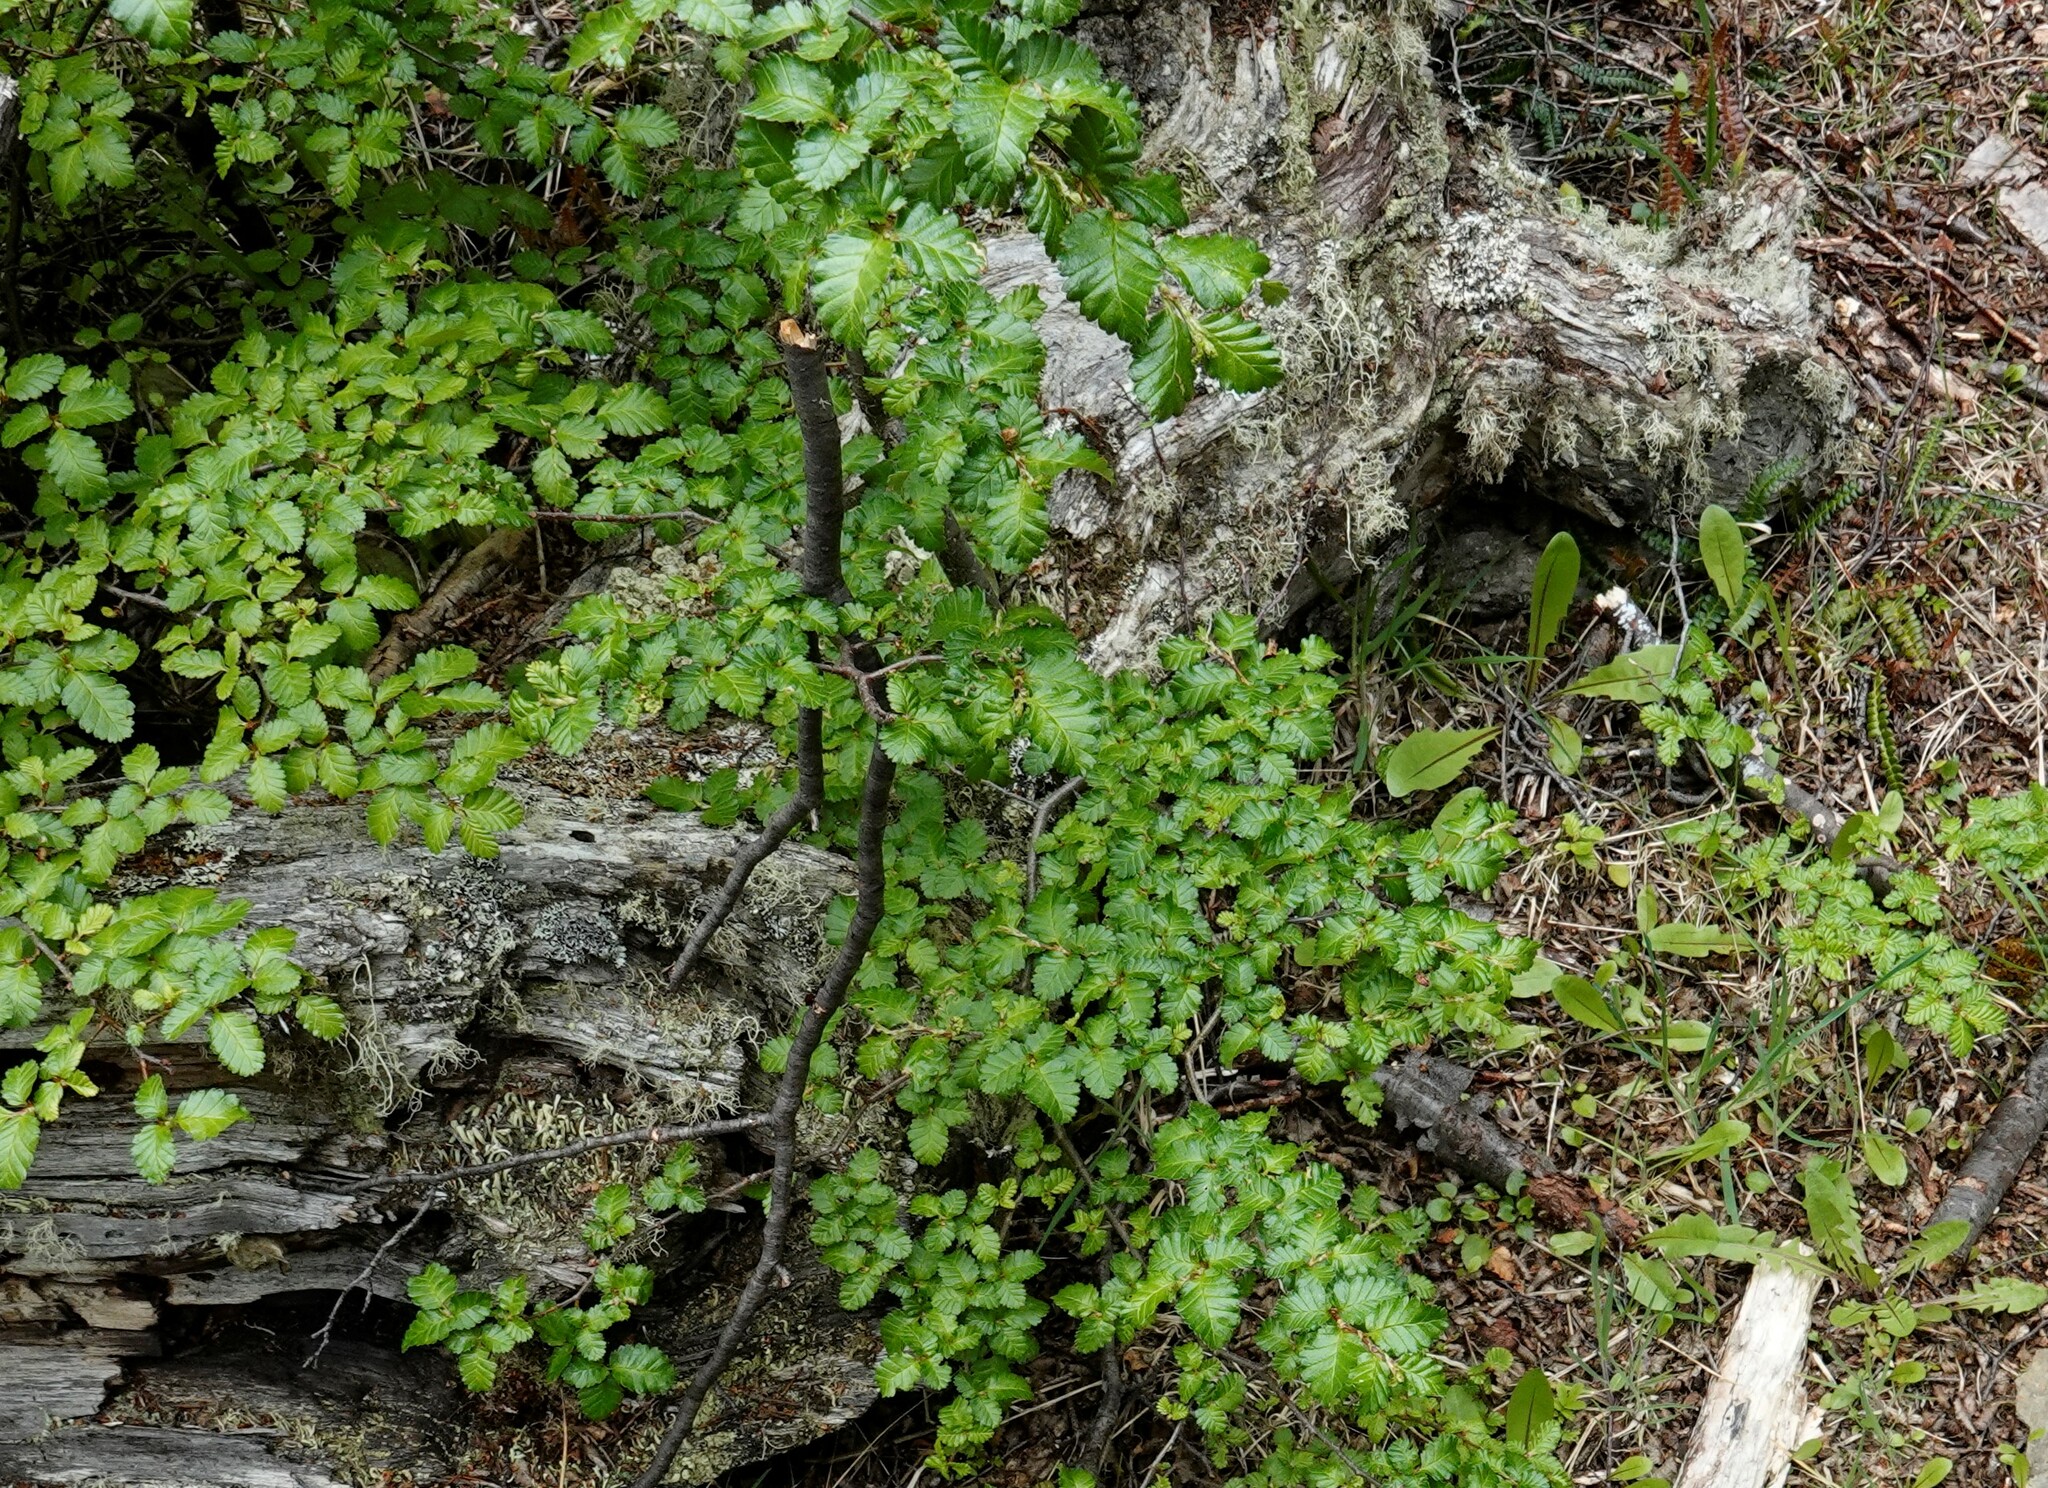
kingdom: Plantae
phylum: Tracheophyta
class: Magnoliopsida
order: Fagales
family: Nothofagaceae
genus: Nothofagus
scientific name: Nothofagus pumilio
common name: Lenga beech
